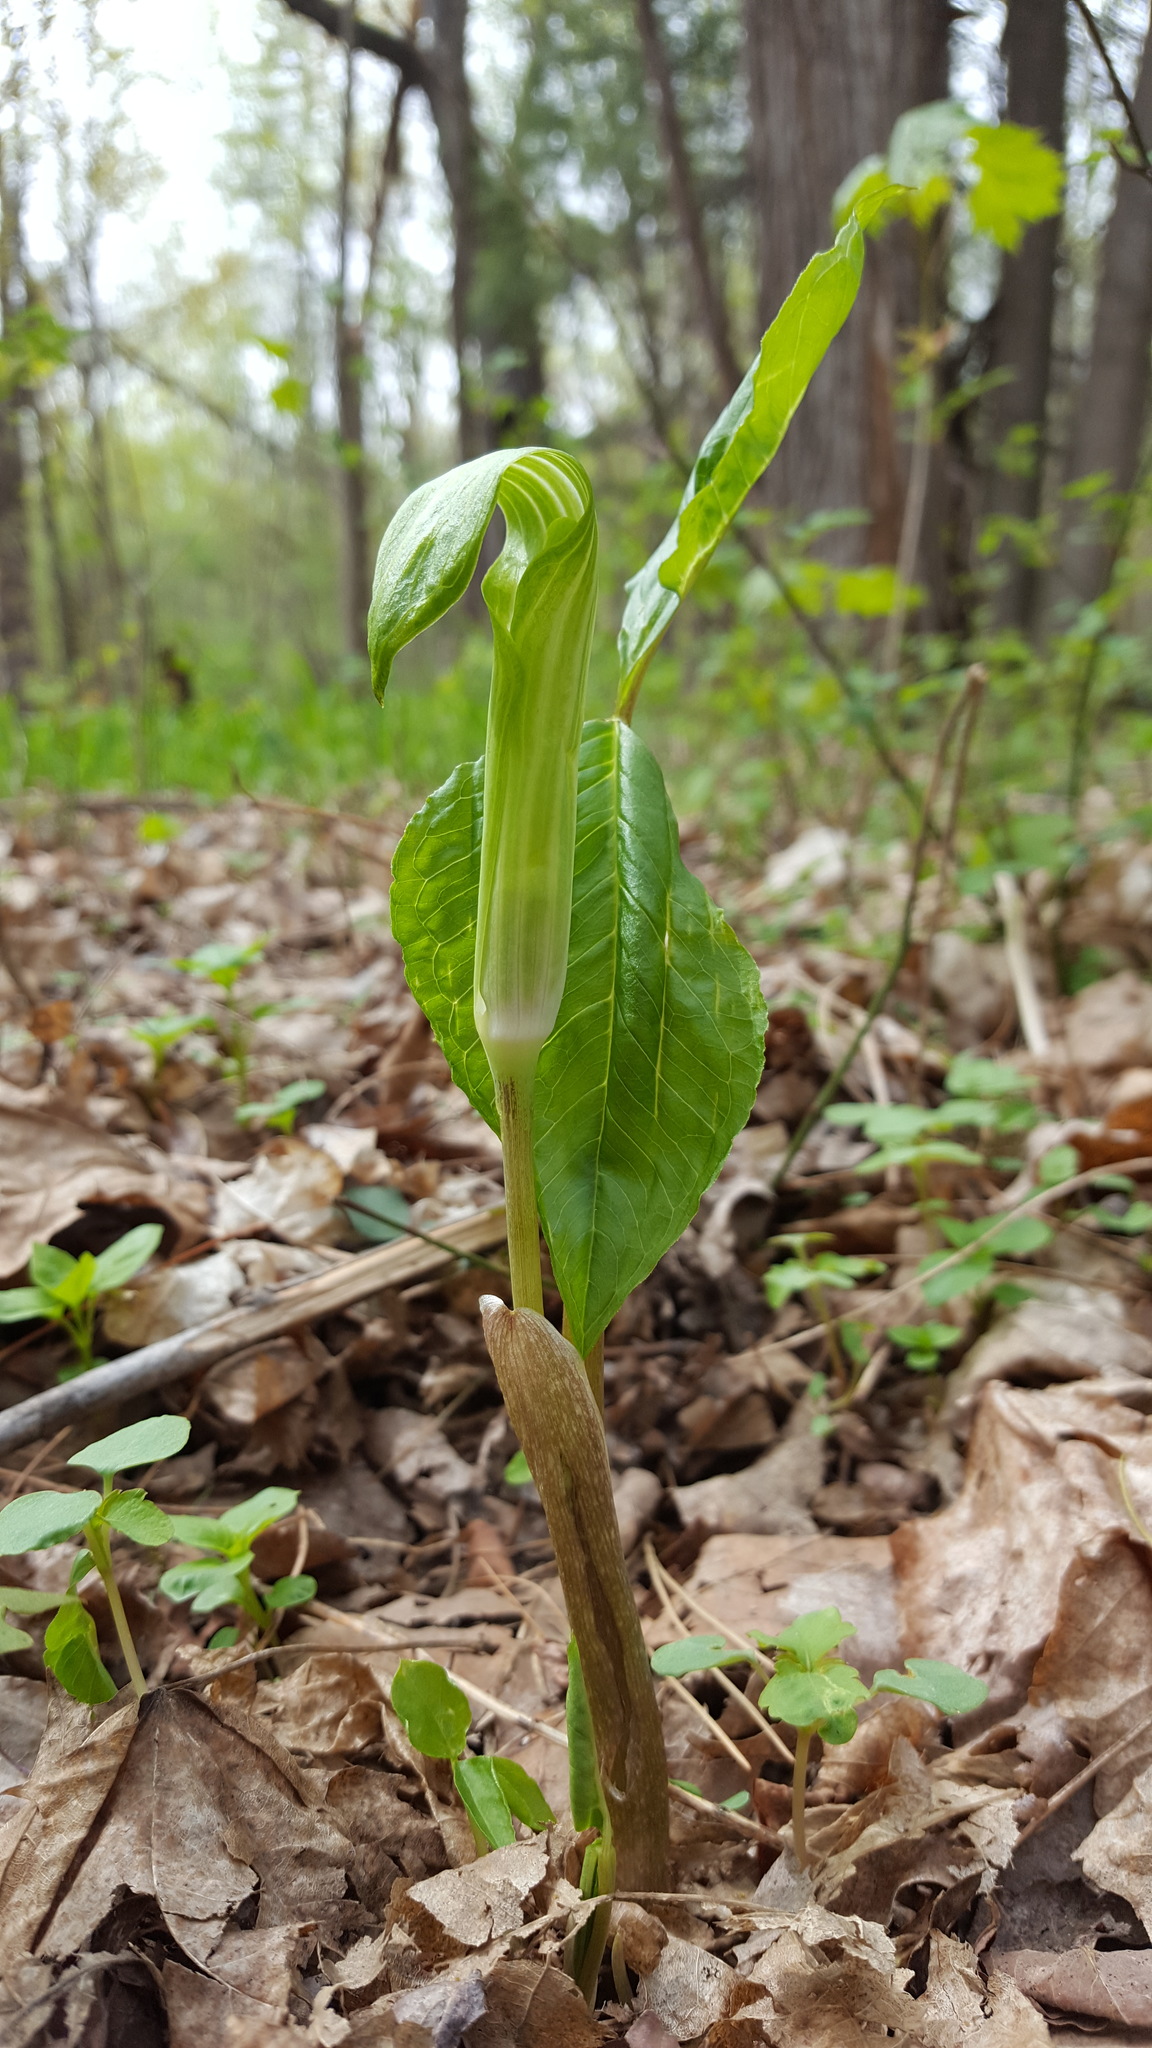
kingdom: Plantae
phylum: Tracheophyta
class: Liliopsida
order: Alismatales
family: Araceae
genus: Arisaema
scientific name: Arisaema triphyllum
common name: Jack-in-the-pulpit
